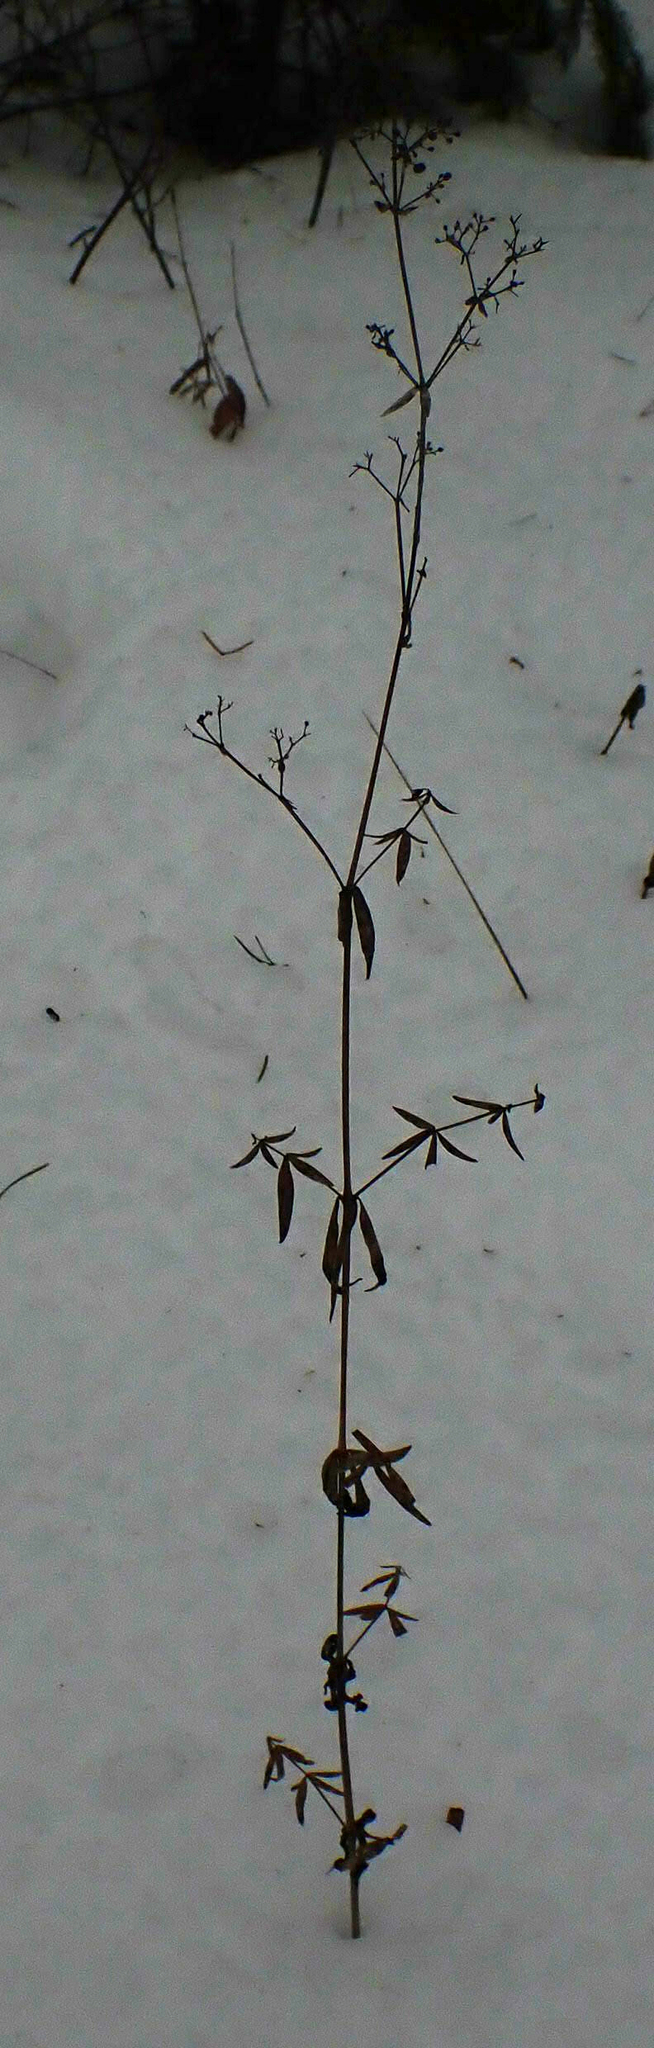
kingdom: Plantae
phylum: Tracheophyta
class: Magnoliopsida
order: Gentianales
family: Rubiaceae
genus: Galium
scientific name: Galium boreale
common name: Northern bedstraw
